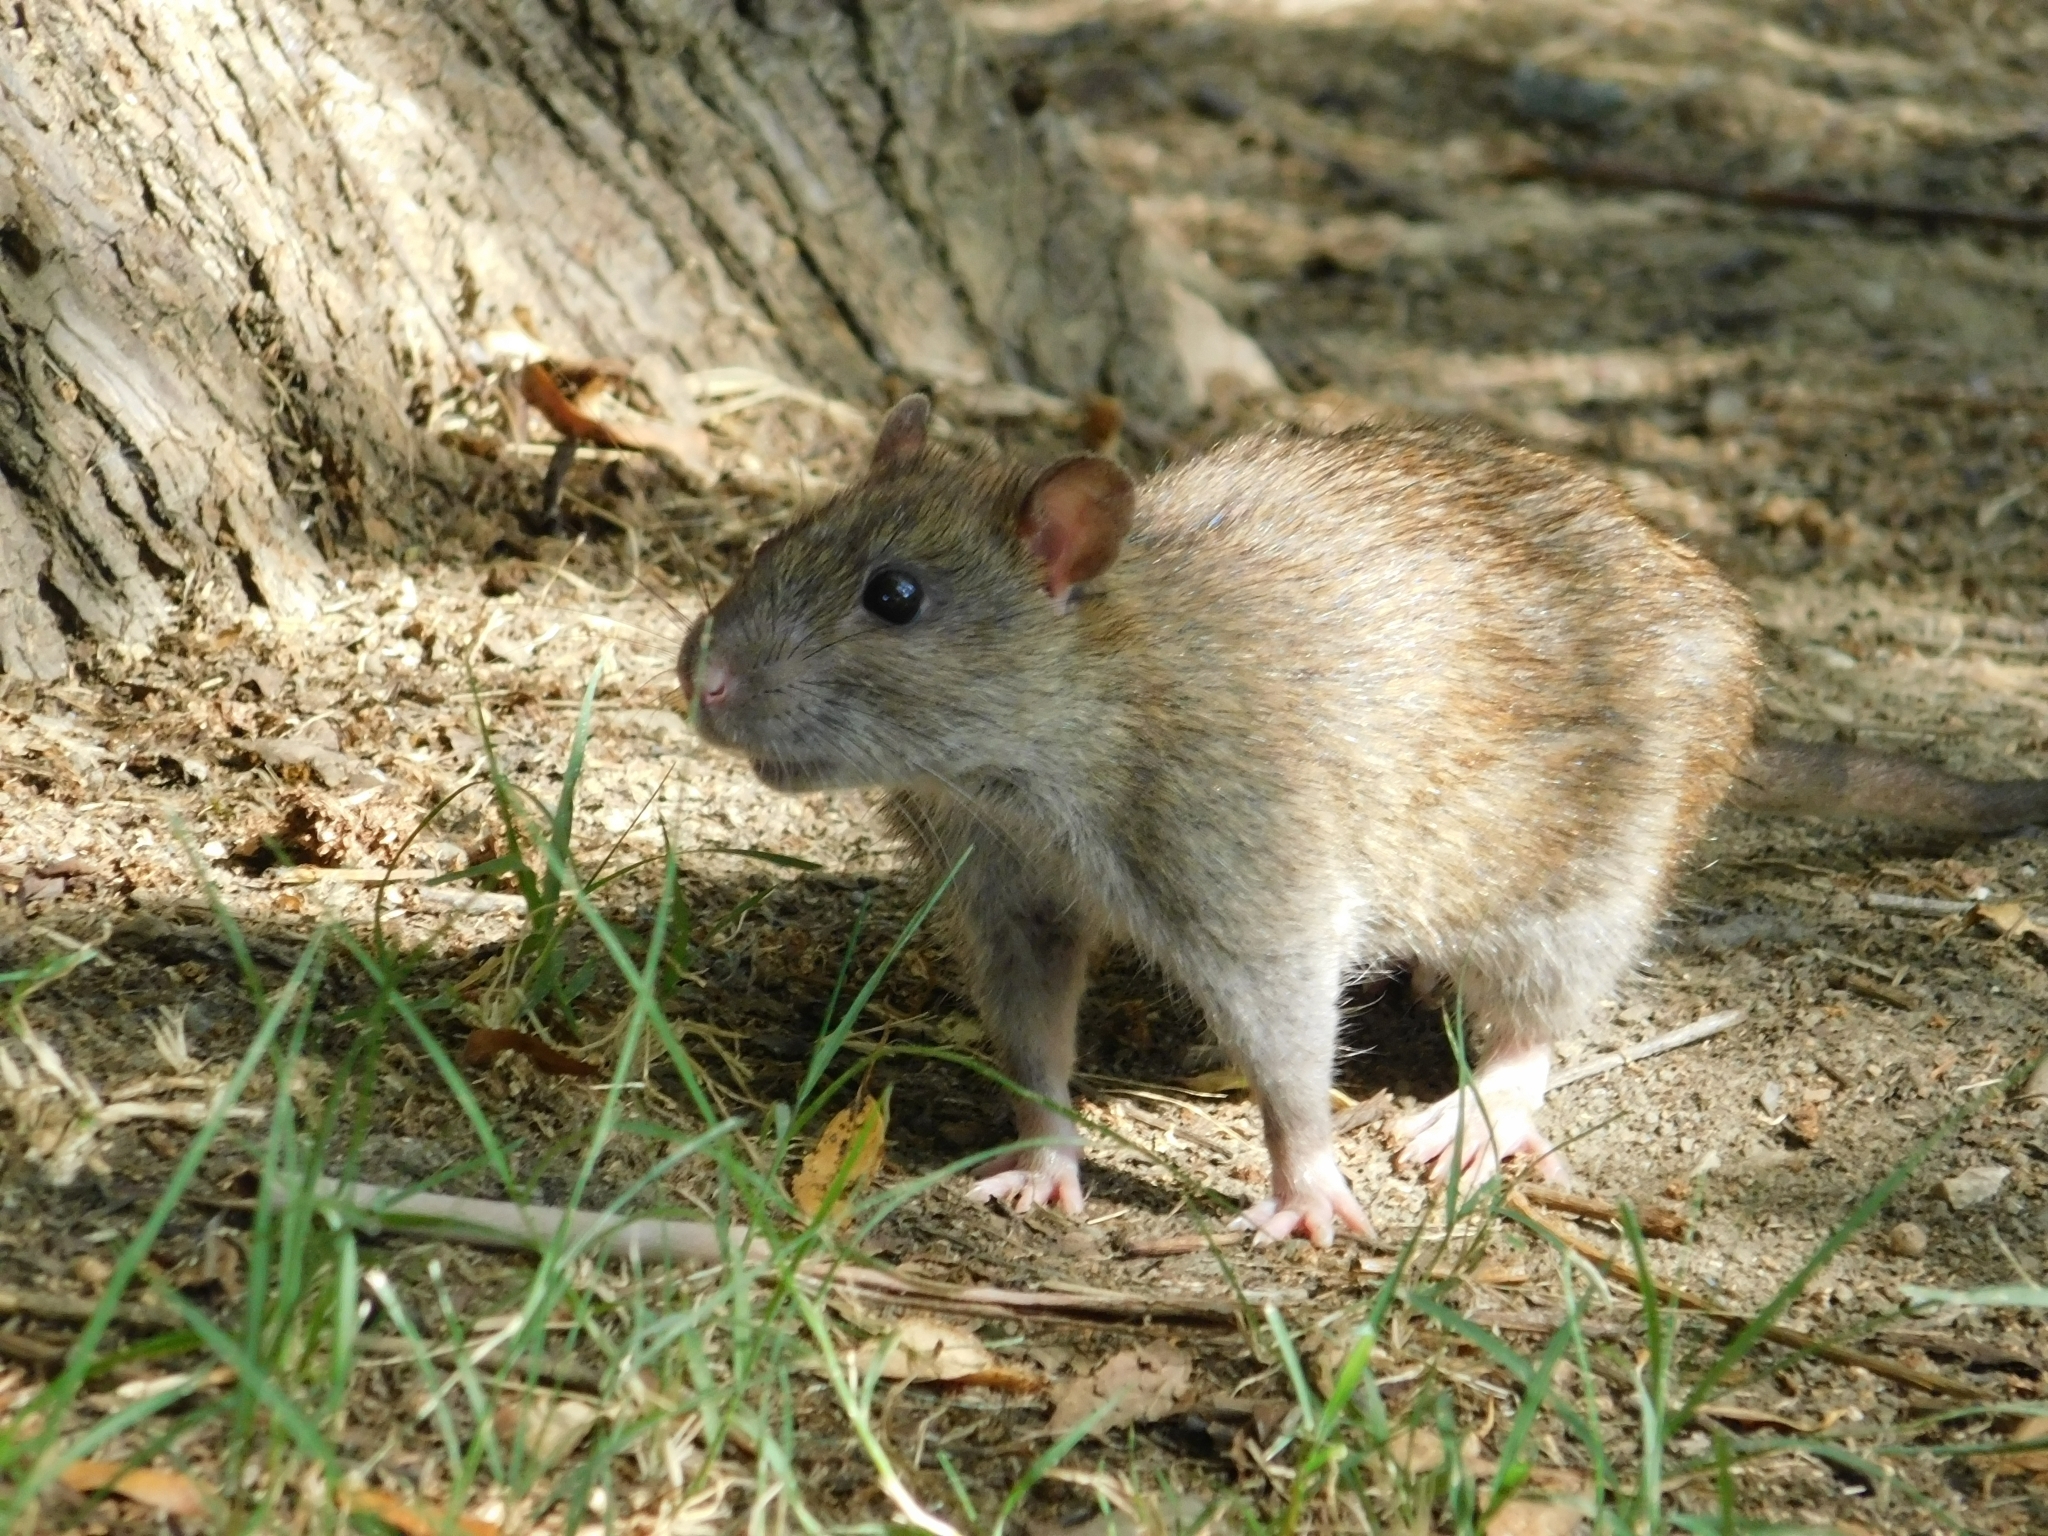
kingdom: Animalia
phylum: Chordata
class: Mammalia
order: Rodentia
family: Muridae
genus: Rattus
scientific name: Rattus norvegicus
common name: Brown rat
